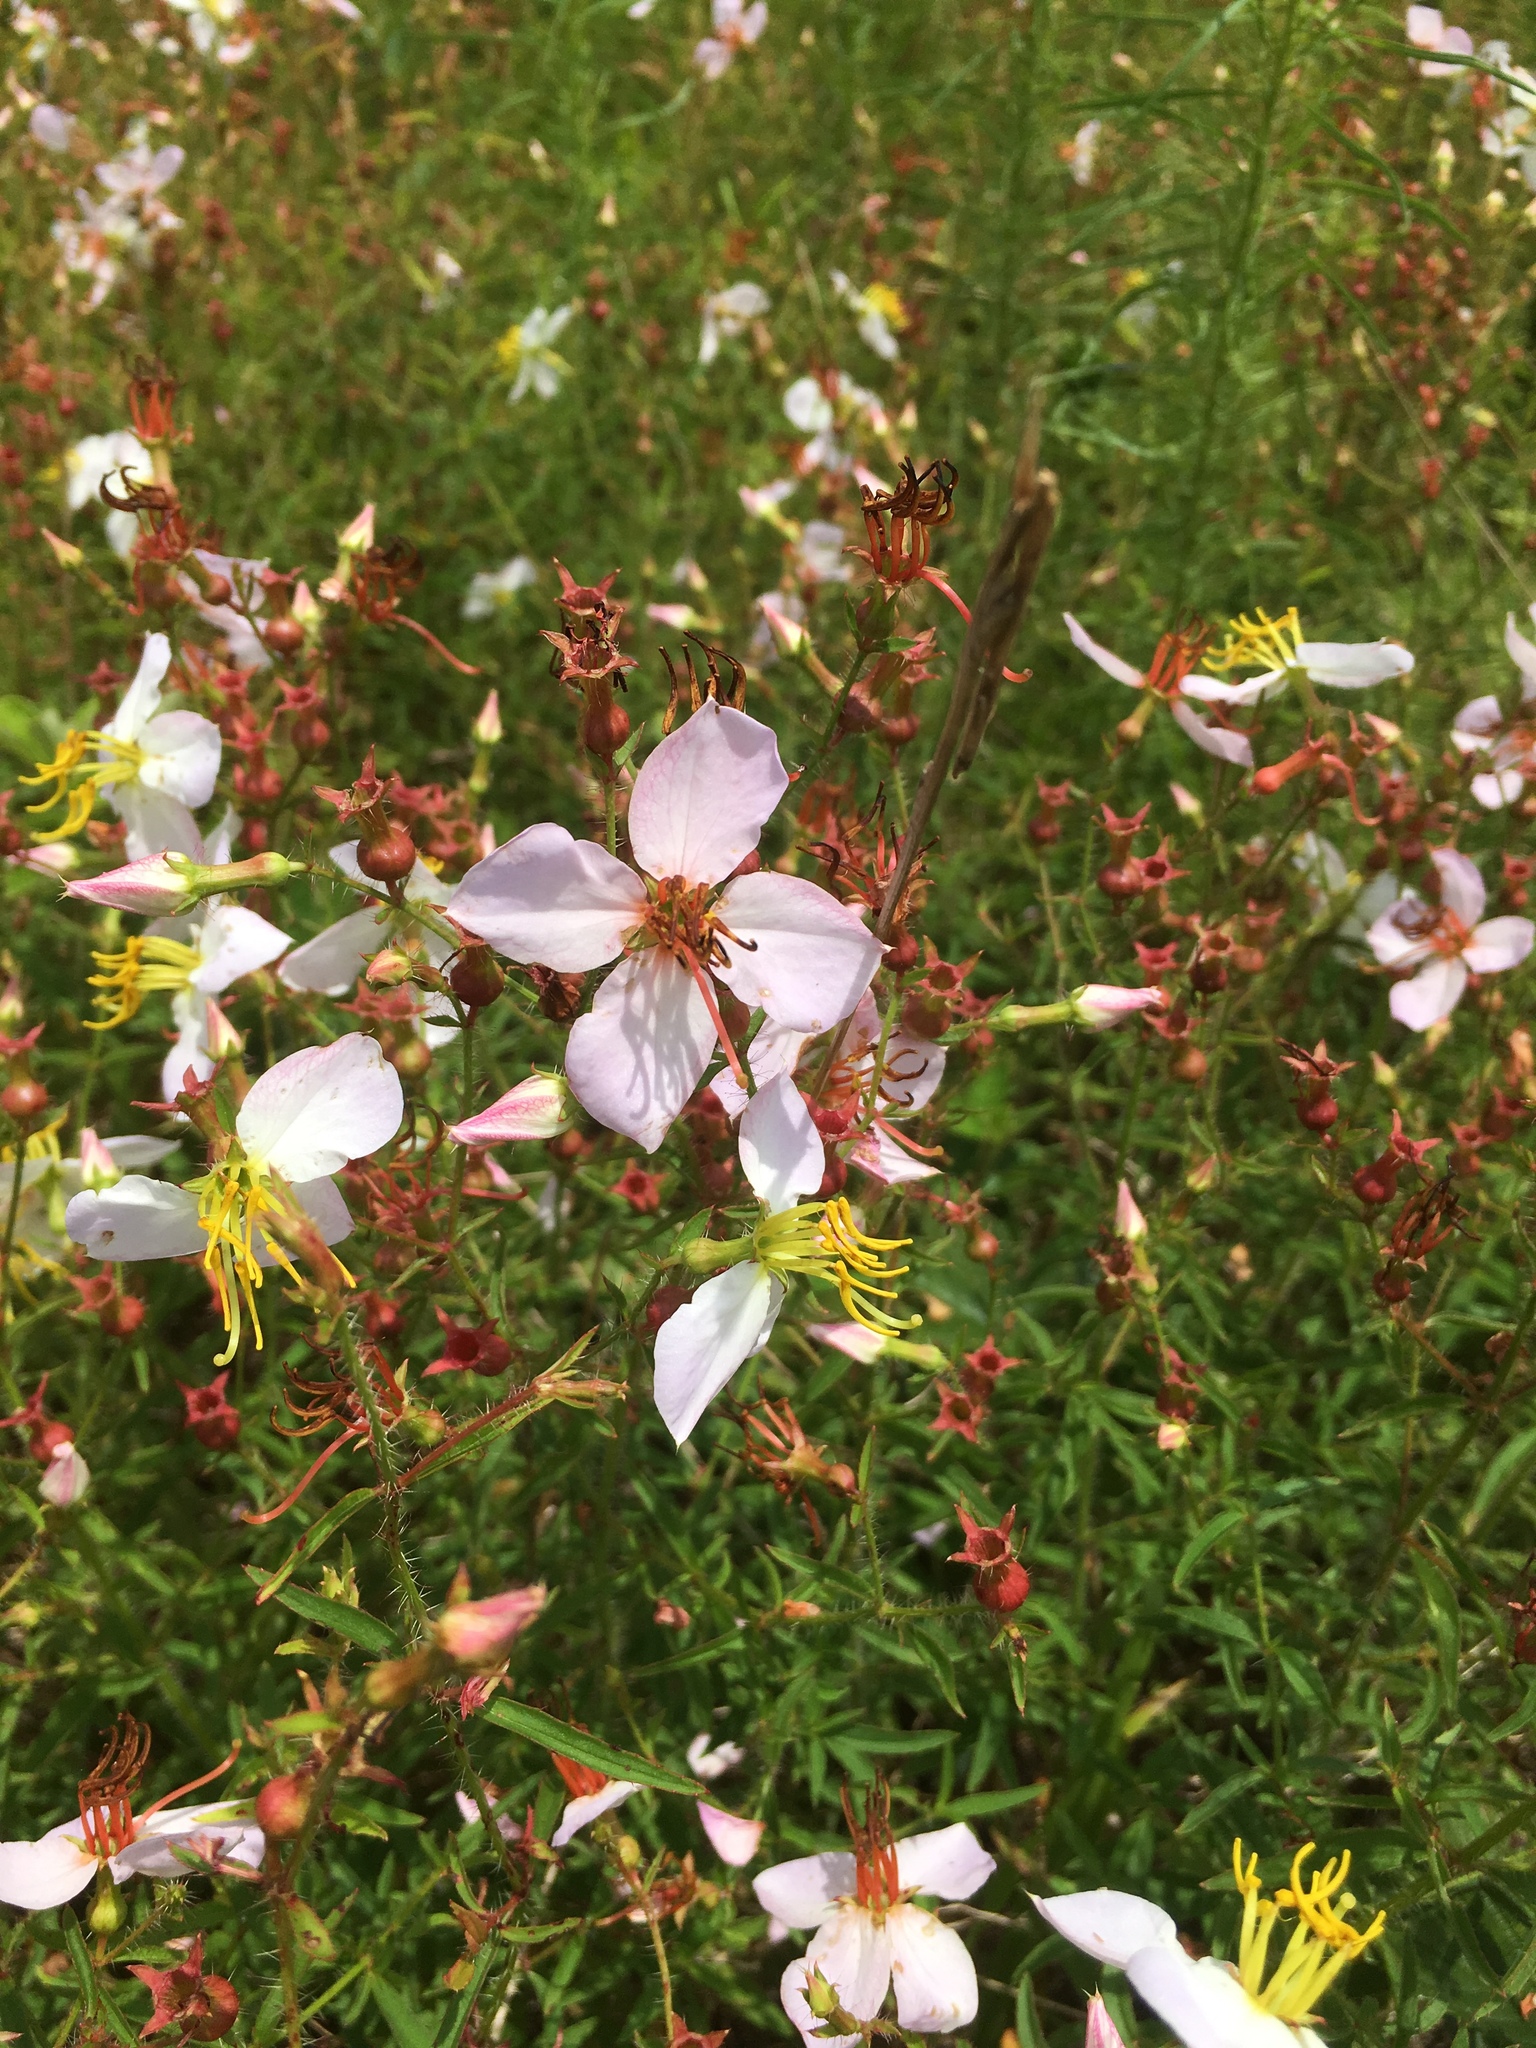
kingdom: Plantae
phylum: Tracheophyta
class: Magnoliopsida
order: Myrtales
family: Melastomataceae
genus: Rhexia
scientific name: Rhexia mariana
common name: Dull meadow-pitcher
